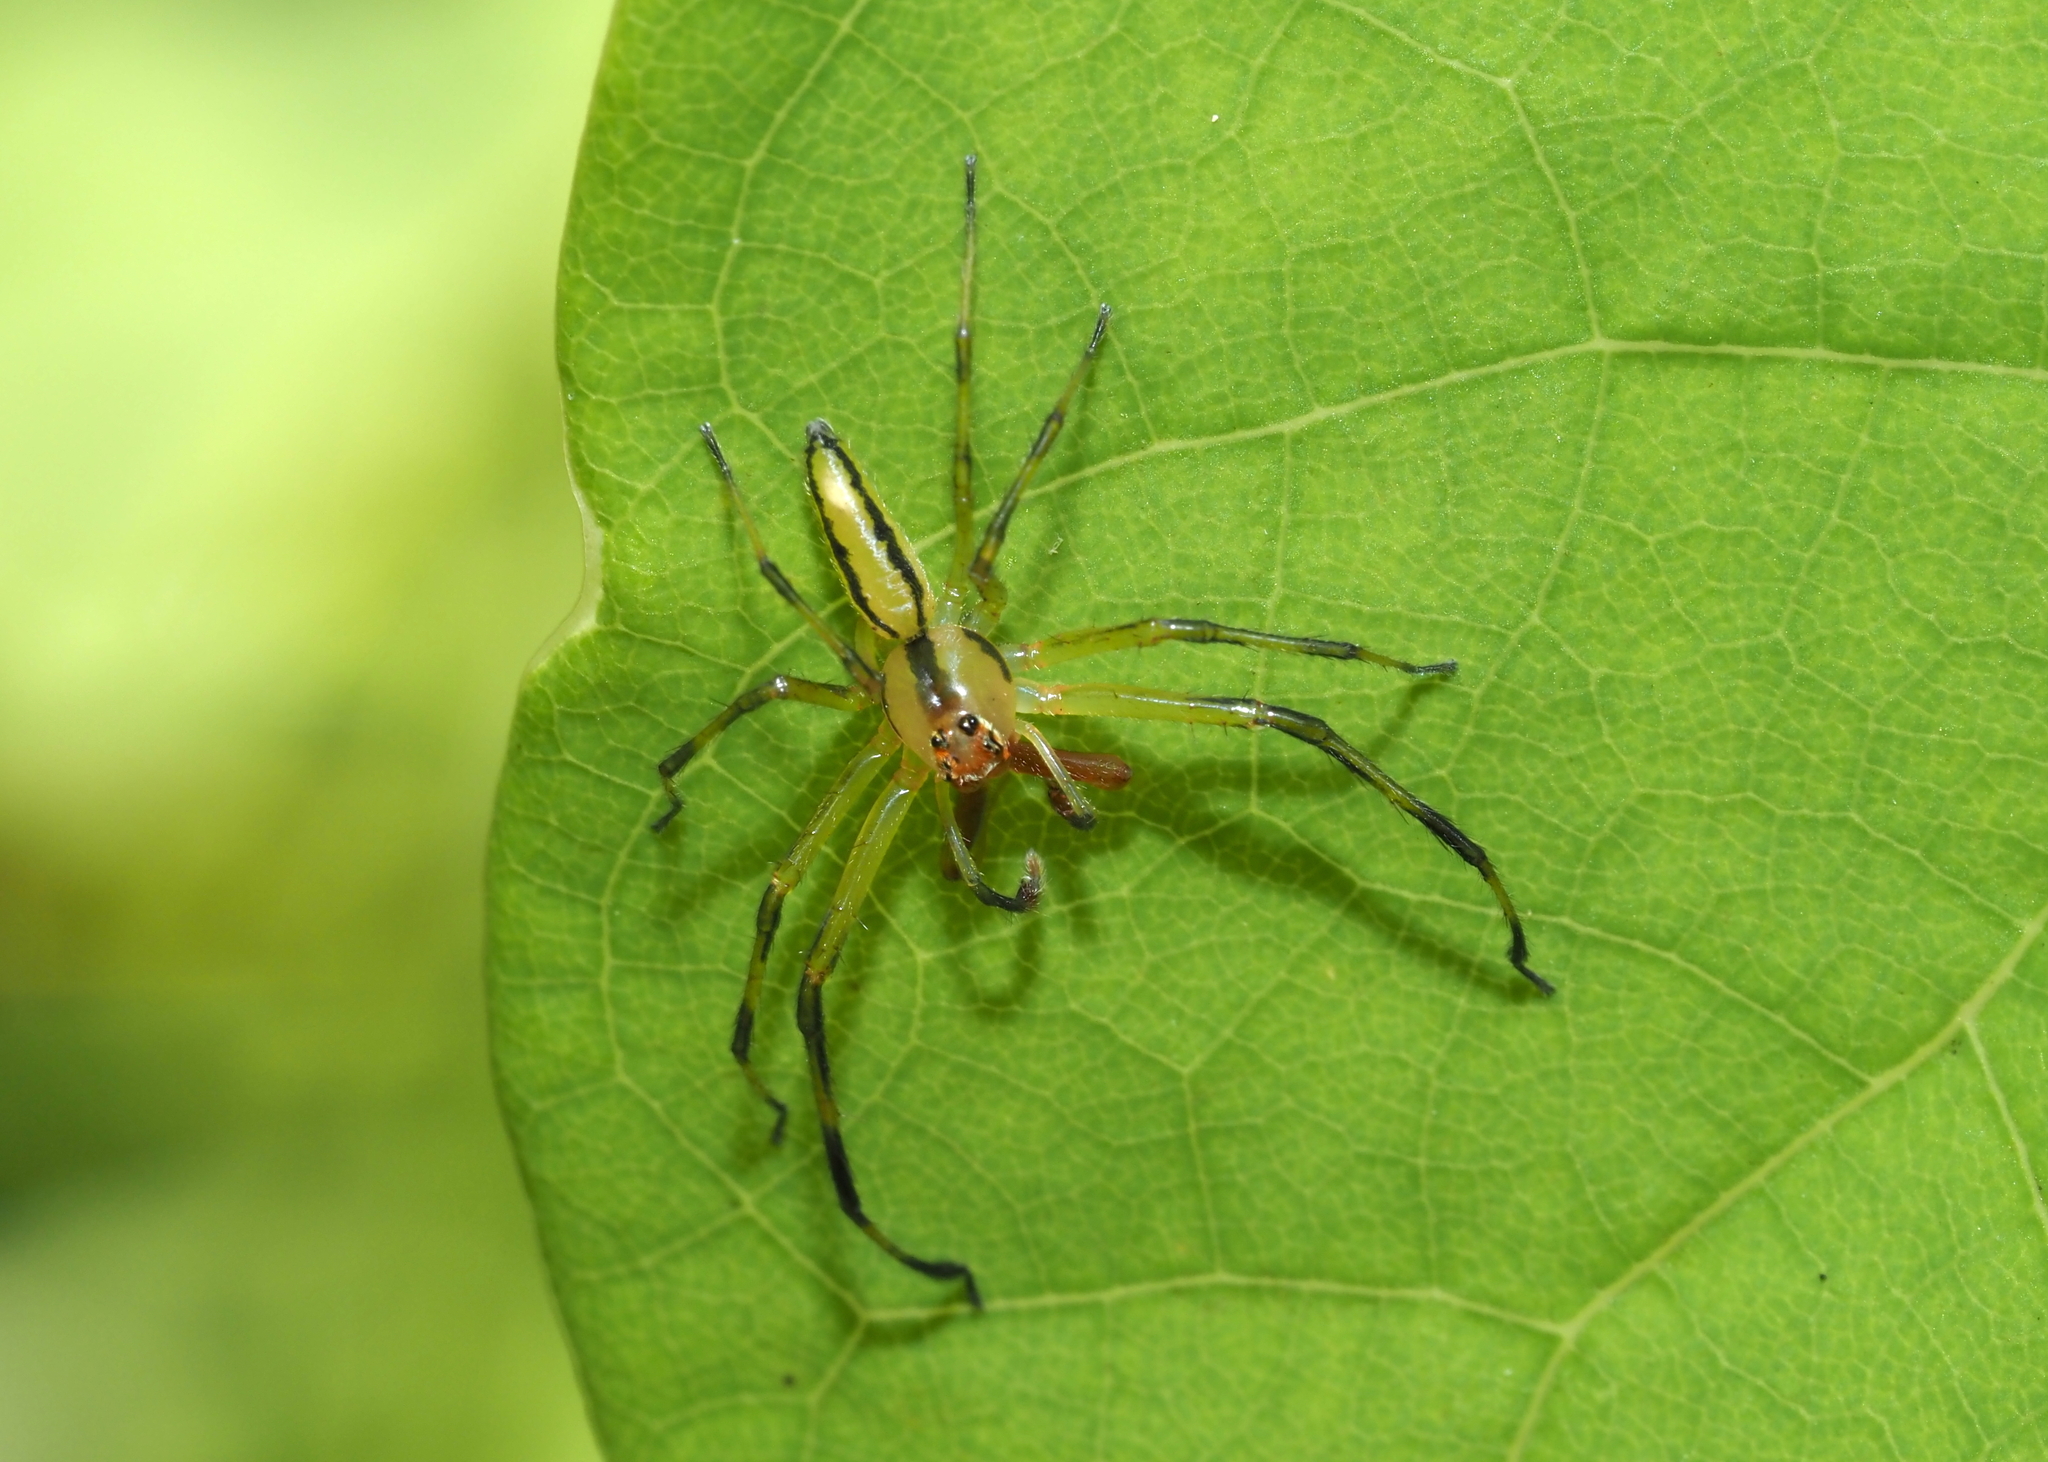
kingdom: Animalia
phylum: Arthropoda
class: Arachnida
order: Araneae
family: Salticidae
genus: Lyssomanes
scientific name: Lyssomanes viridis
